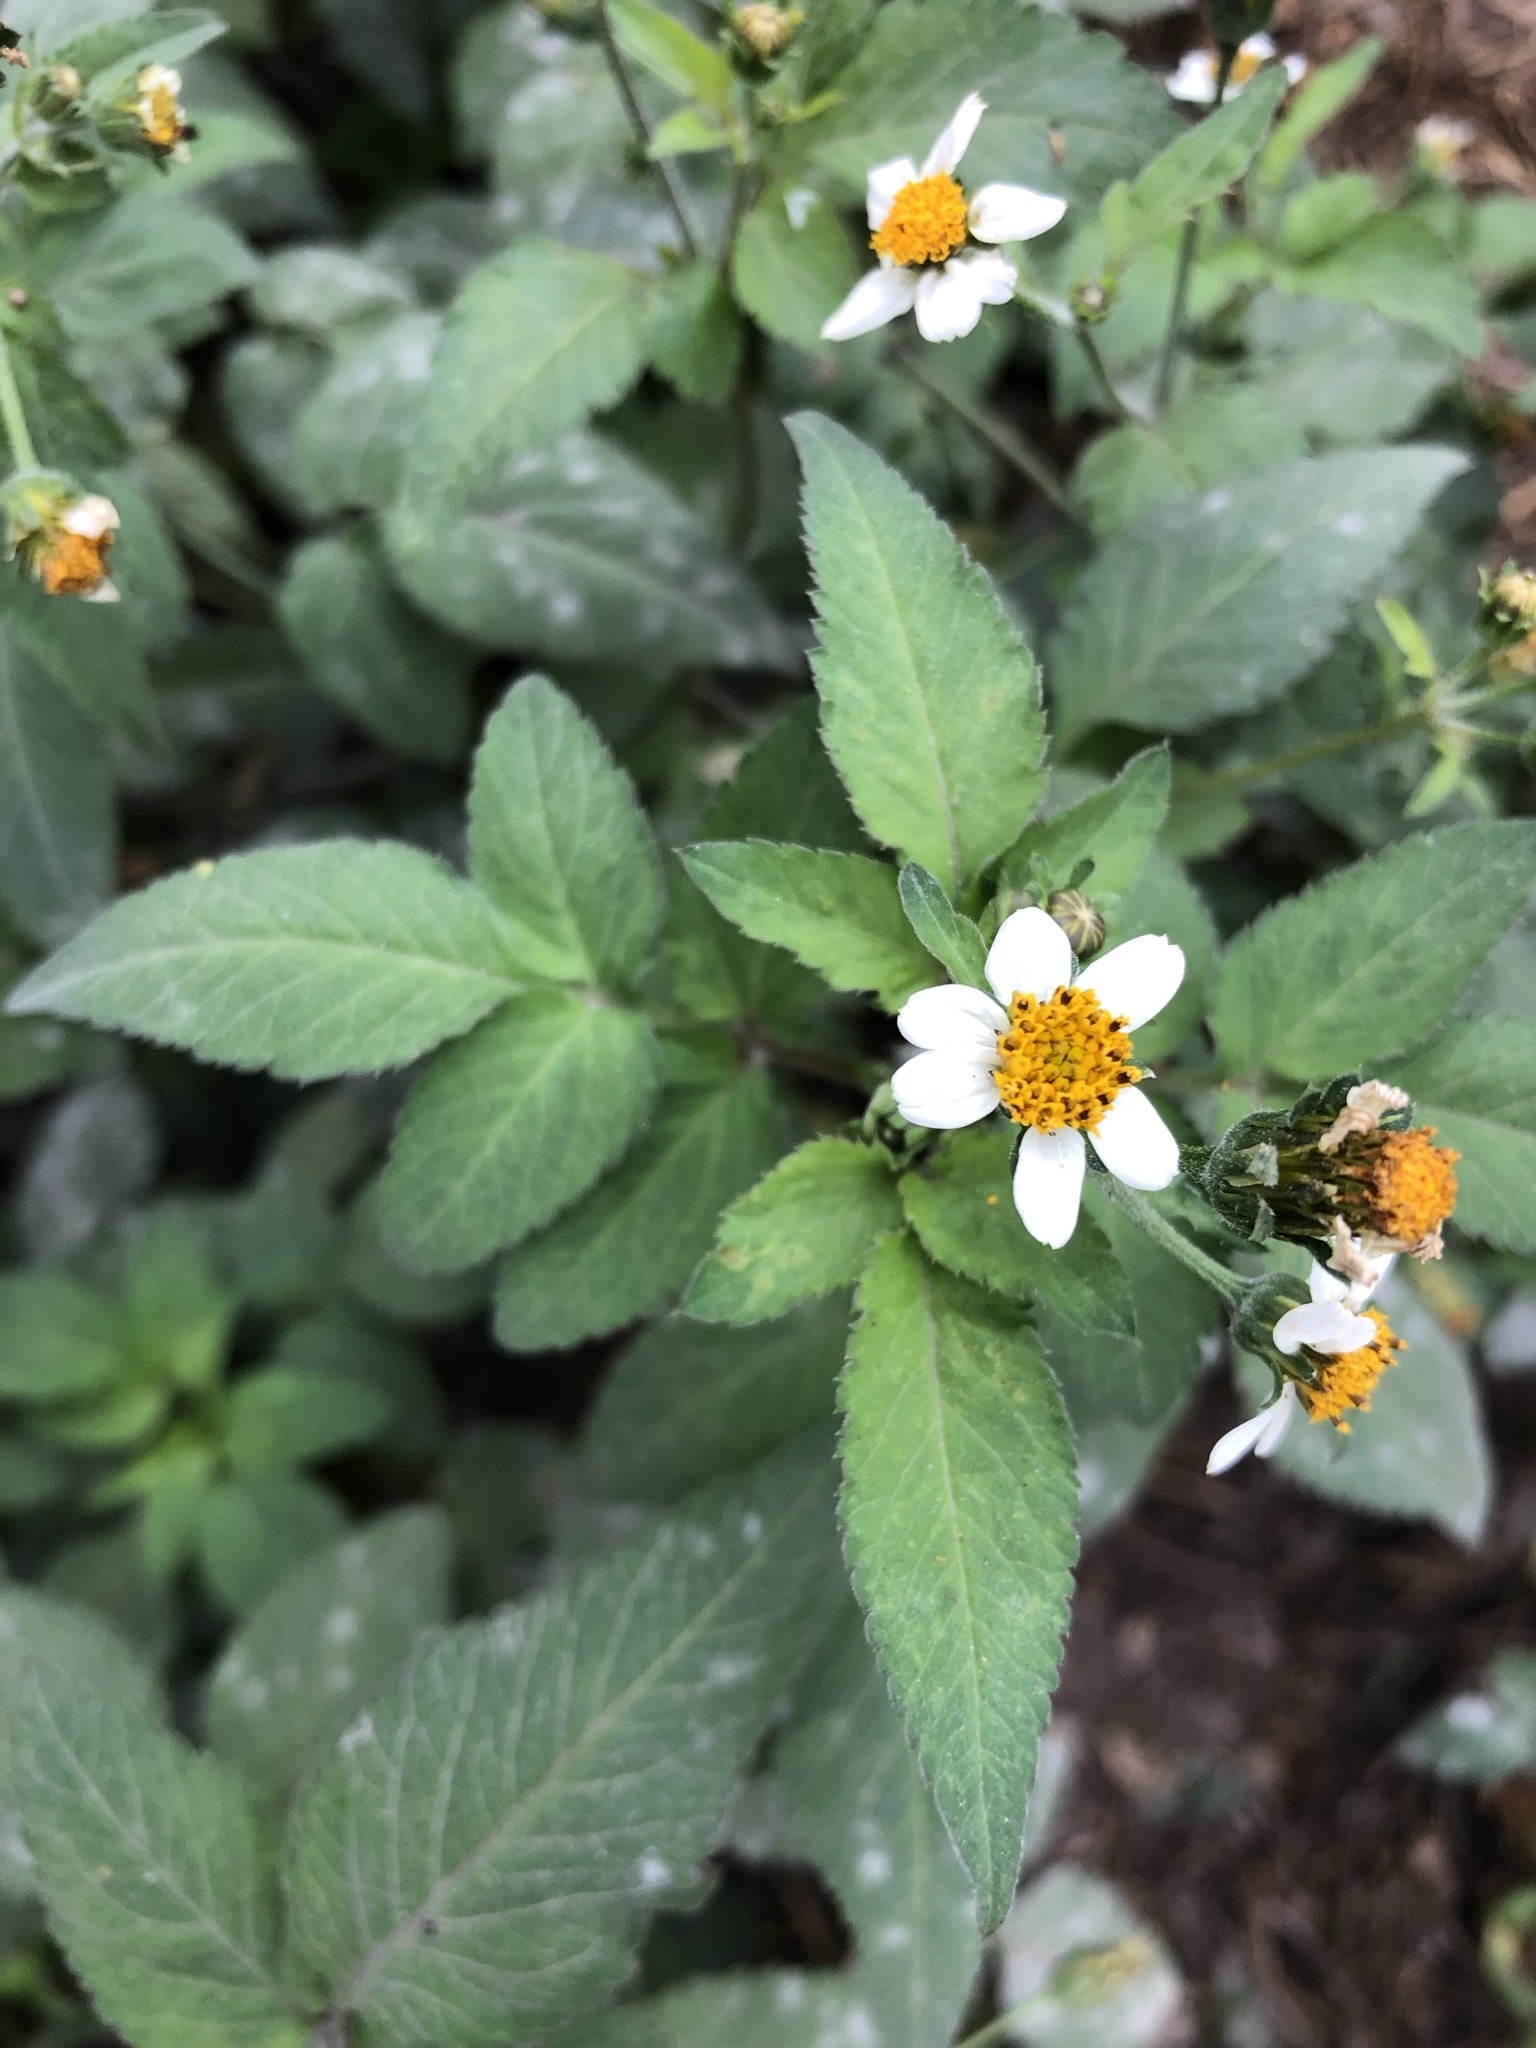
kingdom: Plantae
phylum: Tracheophyta
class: Magnoliopsida
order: Asterales
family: Asteraceae
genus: Bidens
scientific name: Bidens pilosa
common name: Black-jack
